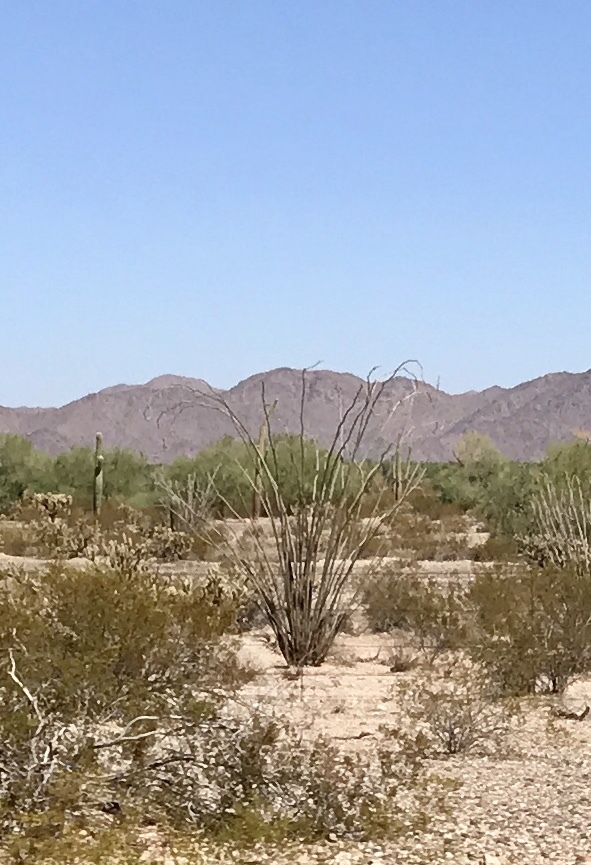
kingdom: Plantae
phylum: Tracheophyta
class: Magnoliopsida
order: Ericales
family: Fouquieriaceae
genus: Fouquieria
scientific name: Fouquieria splendens
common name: Vine-cactus
